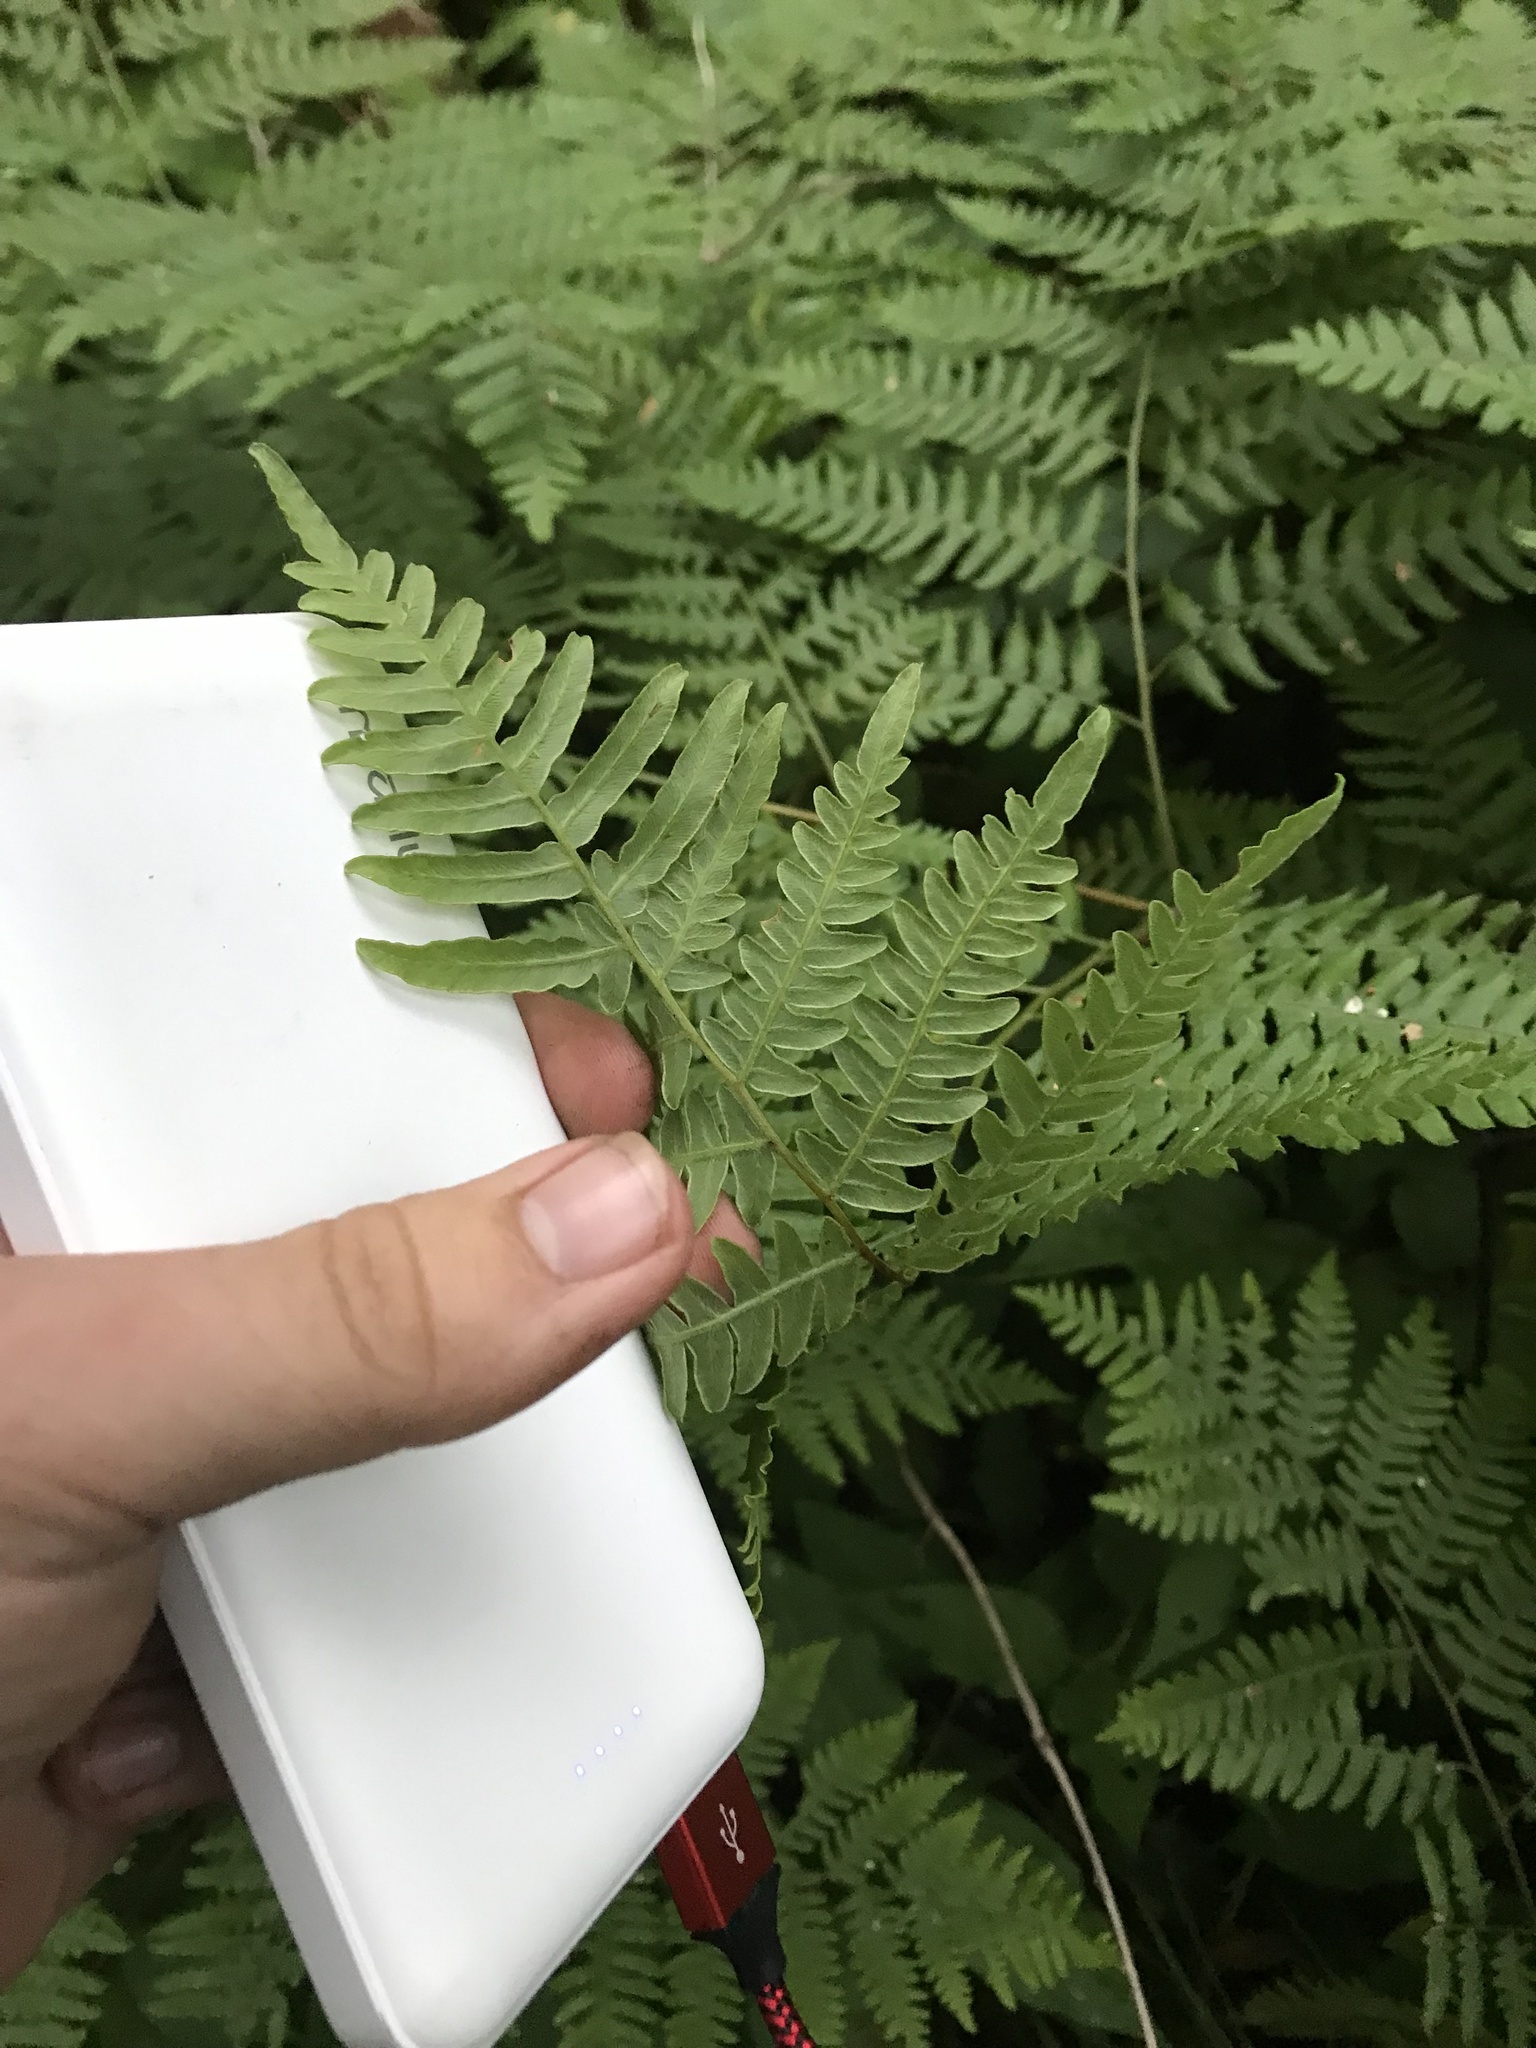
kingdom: Plantae
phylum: Tracheophyta
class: Polypodiopsida
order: Polypodiales
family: Dennstaedtiaceae
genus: Pteridium
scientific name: Pteridium aquilinum
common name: Bracken
